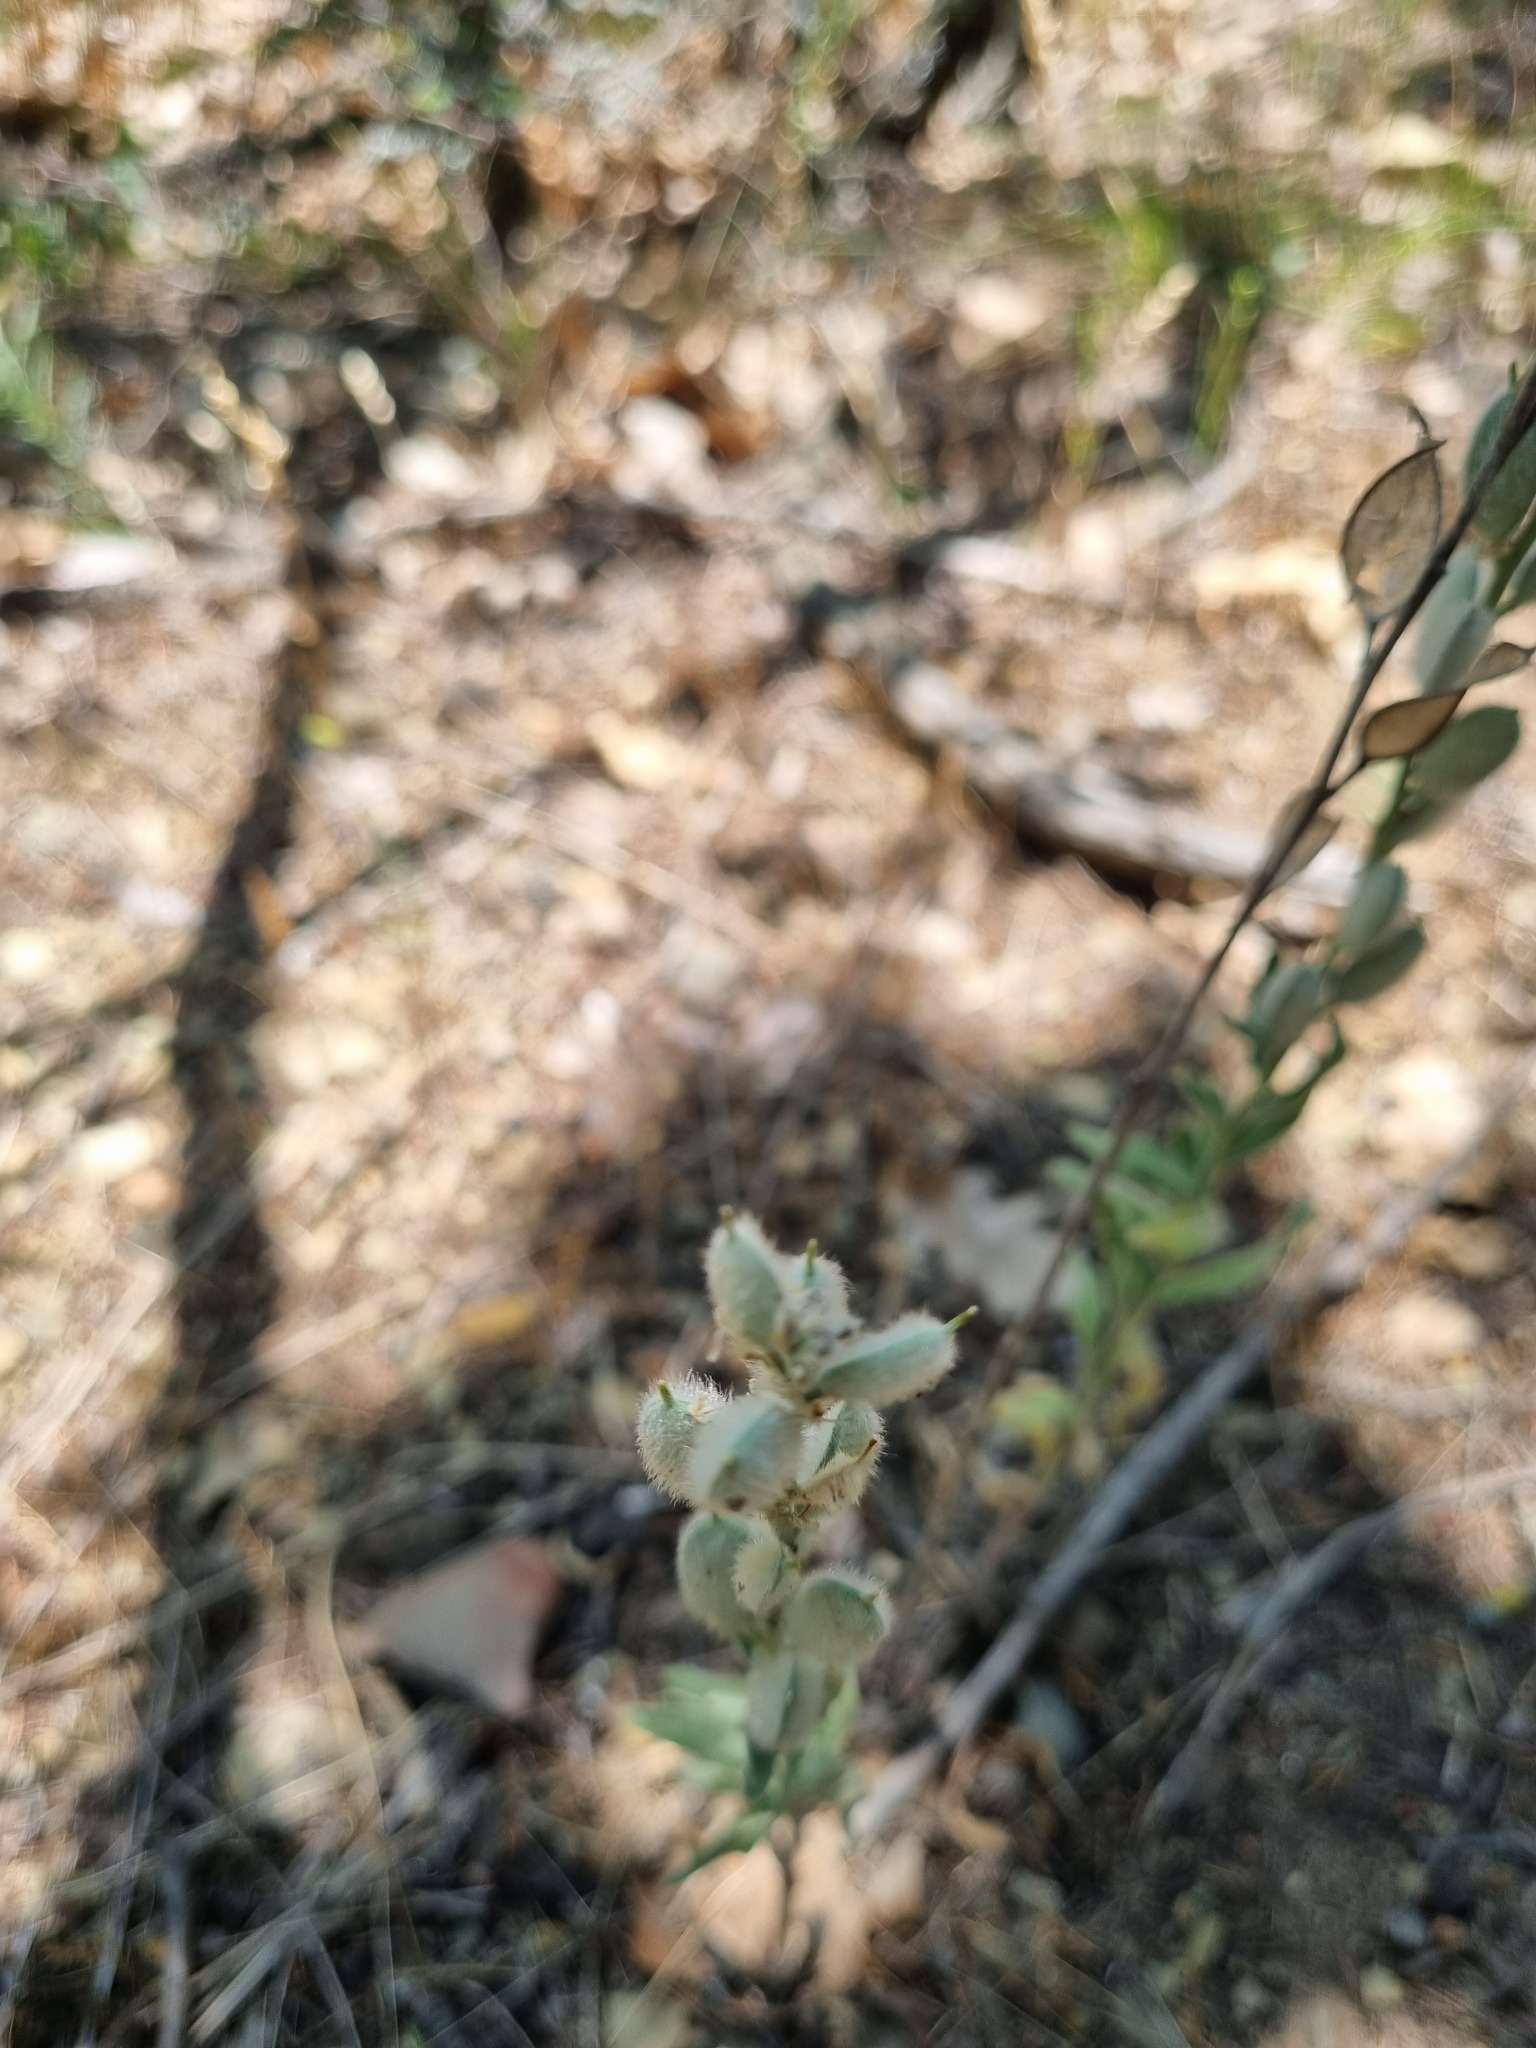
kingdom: Plantae
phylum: Tracheophyta
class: Magnoliopsida
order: Brassicales
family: Brassicaceae
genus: Fibigia
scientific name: Fibigia clypeata
